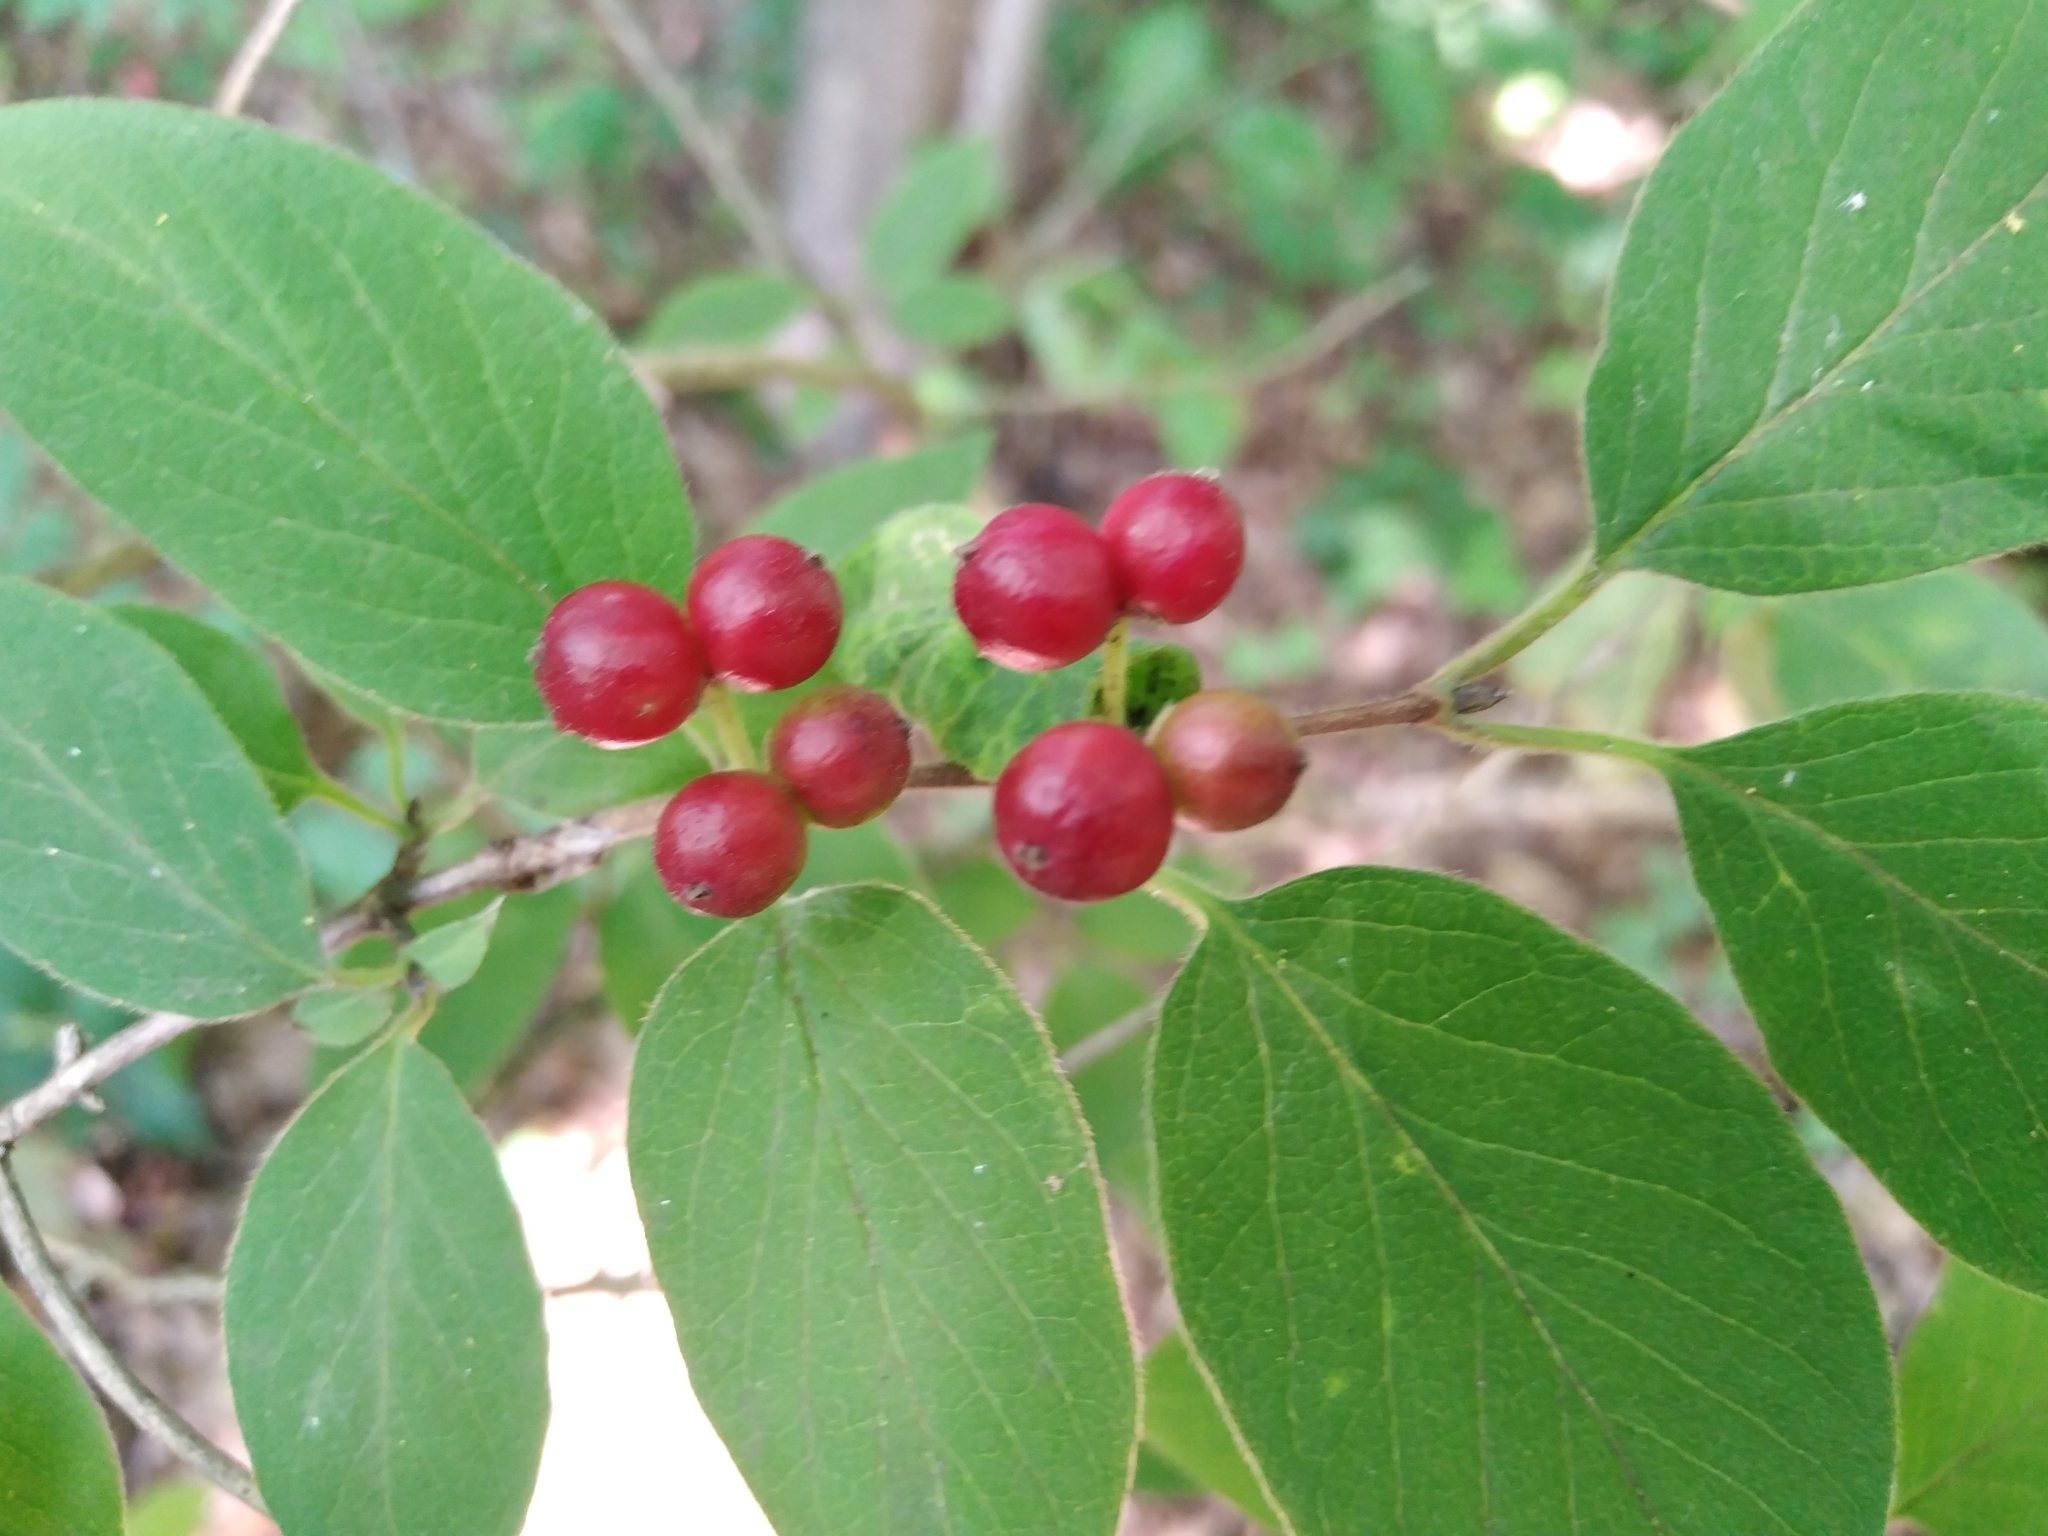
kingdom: Plantae
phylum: Tracheophyta
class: Magnoliopsida
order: Dipsacales
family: Caprifoliaceae
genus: Lonicera
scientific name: Lonicera xylosteum
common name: Fly honeysuckle
